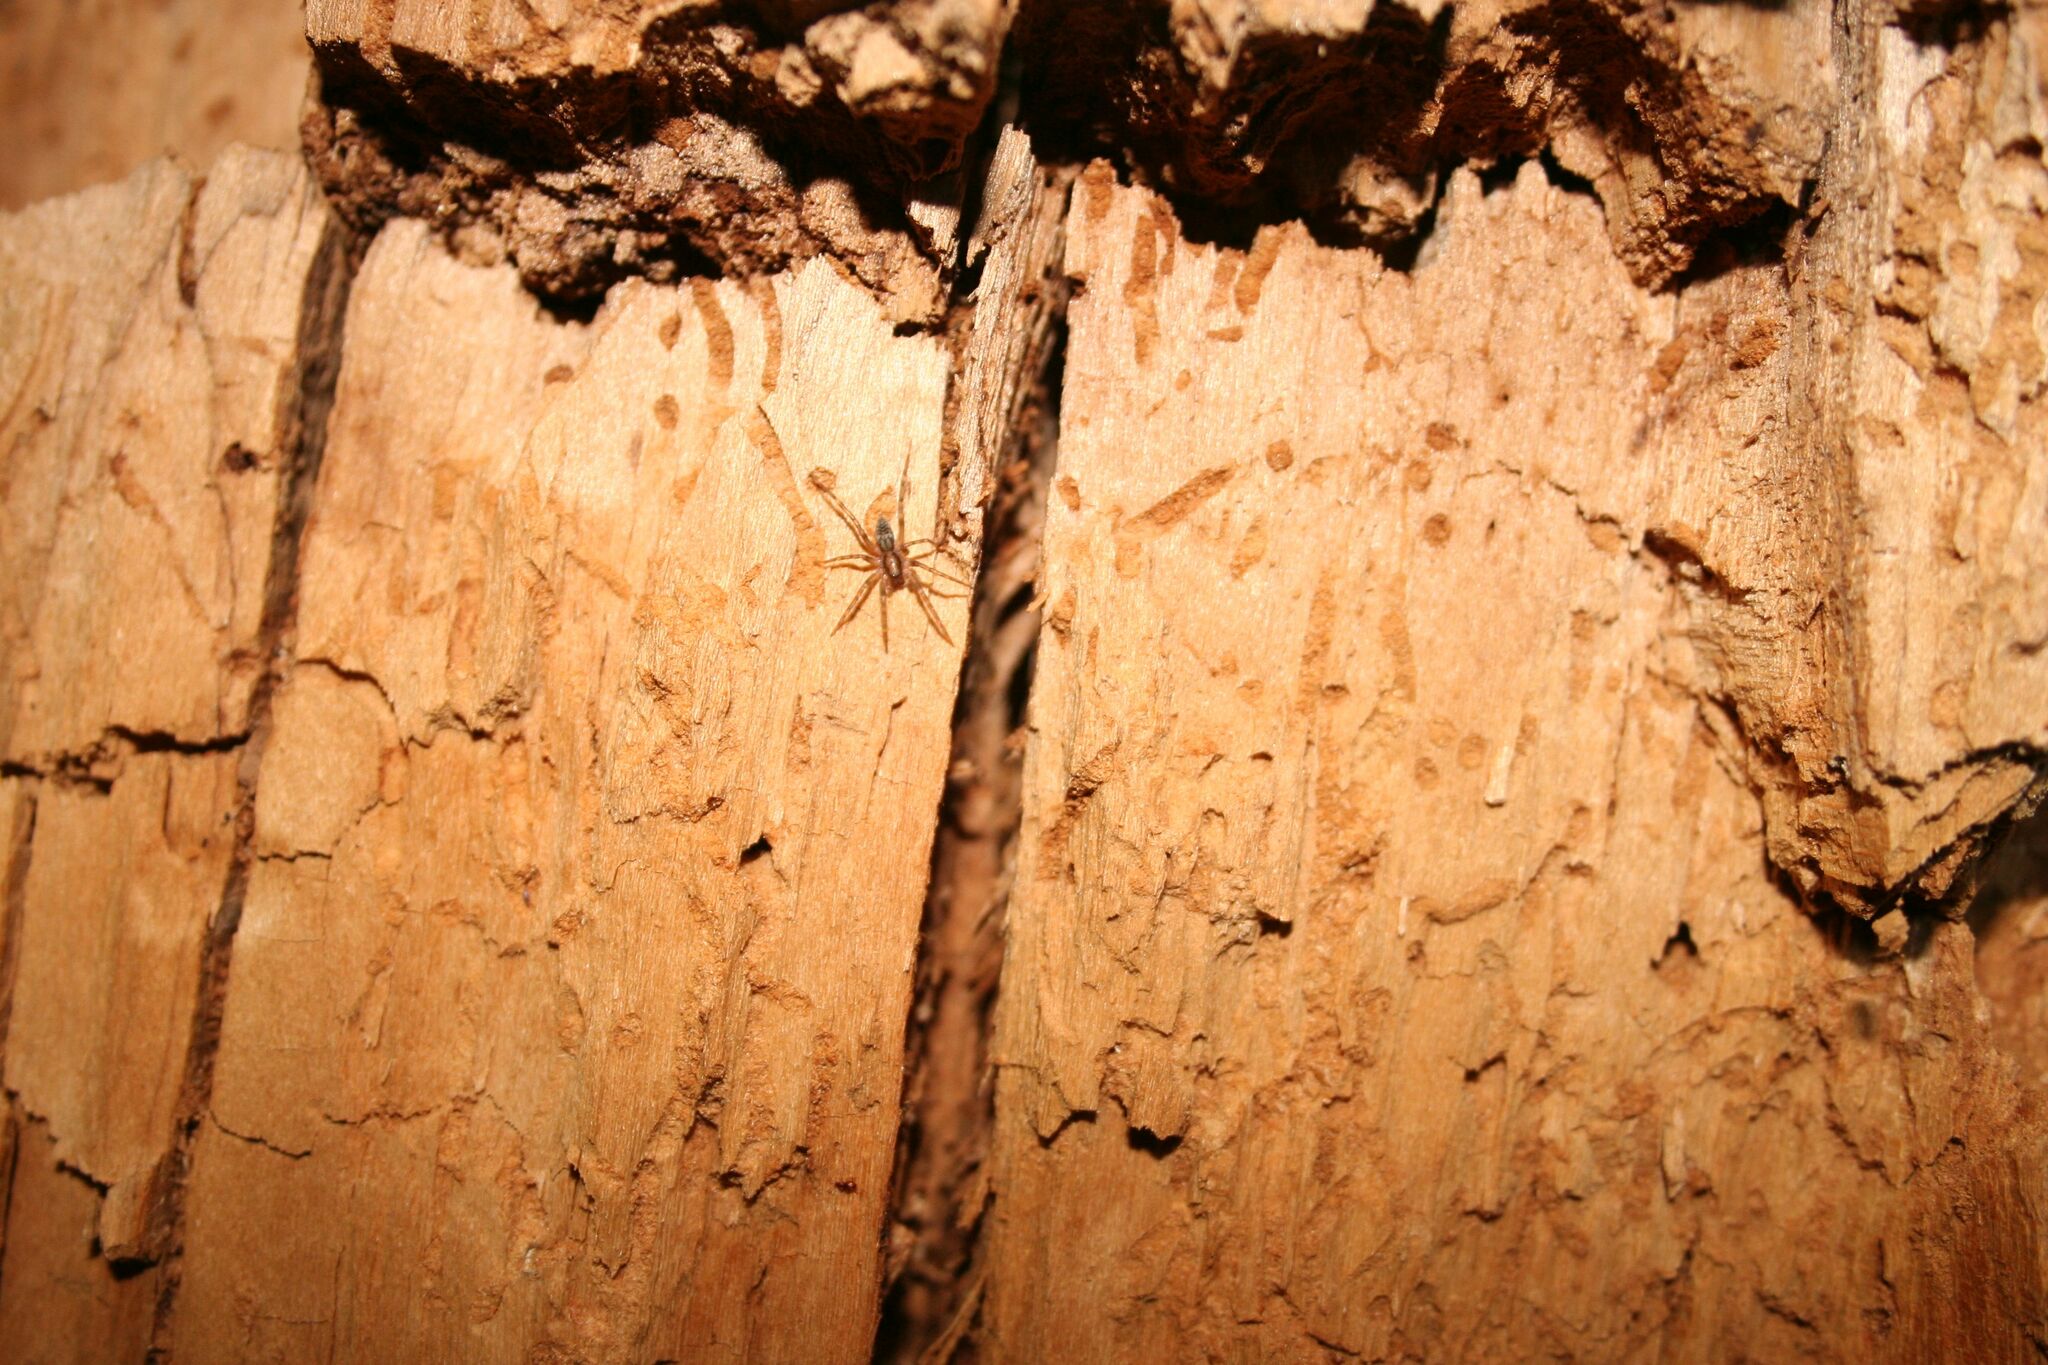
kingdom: Animalia
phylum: Arthropoda
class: Arachnida
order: Araneae
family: Liocranidae
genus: Liocranum
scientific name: Liocranum rupicola
